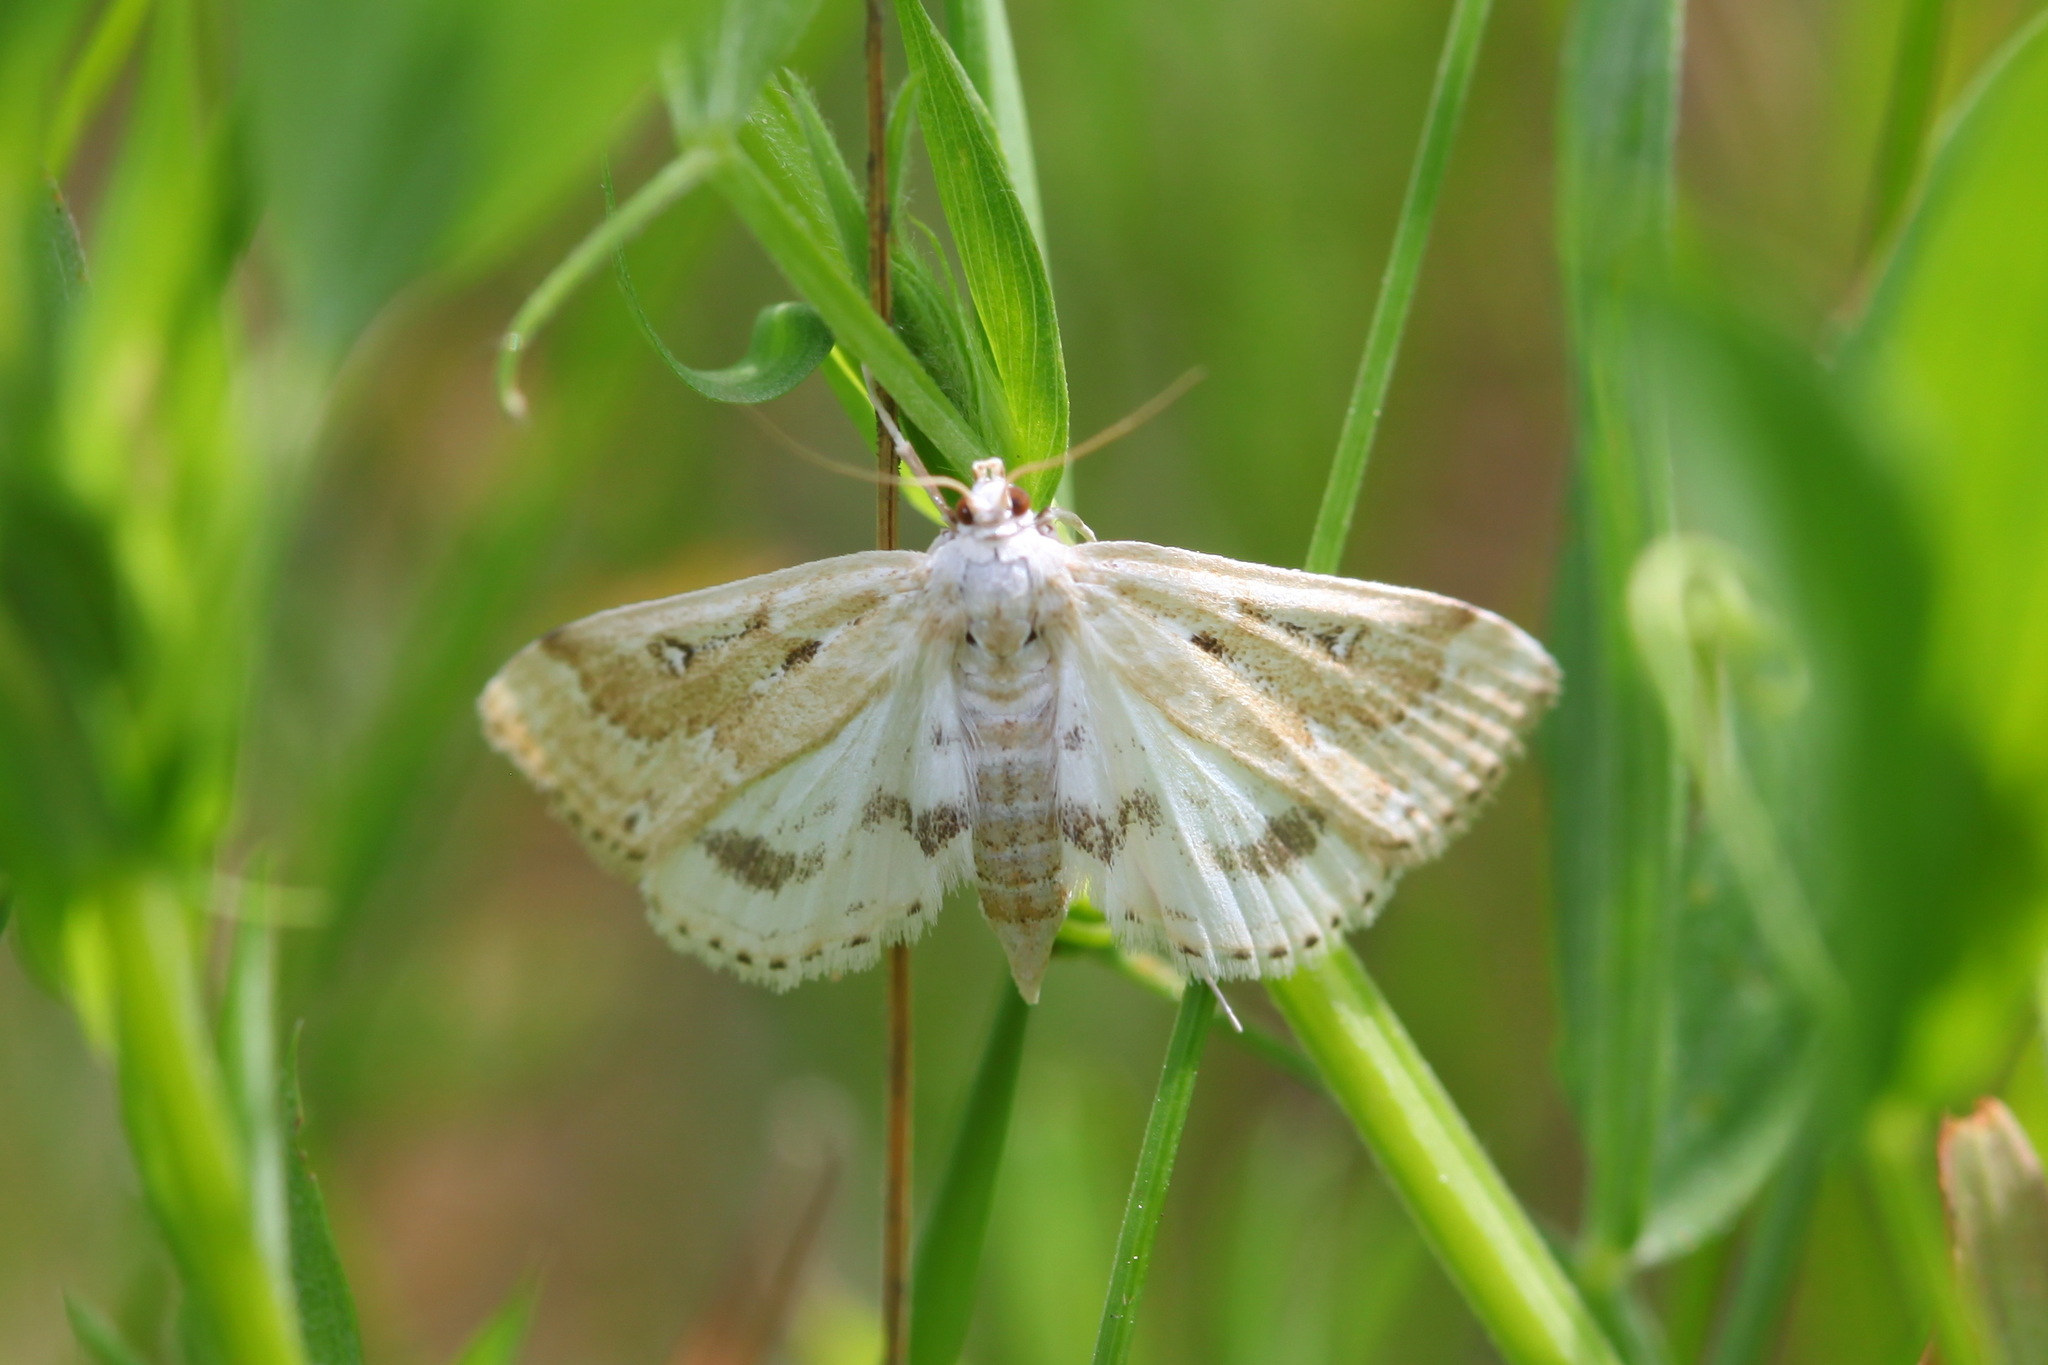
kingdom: Animalia
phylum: Arthropoda
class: Insecta
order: Lepidoptera
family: Crambidae
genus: Parapoynx
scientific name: Parapoynx stratiotata
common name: Ringed china-mark
